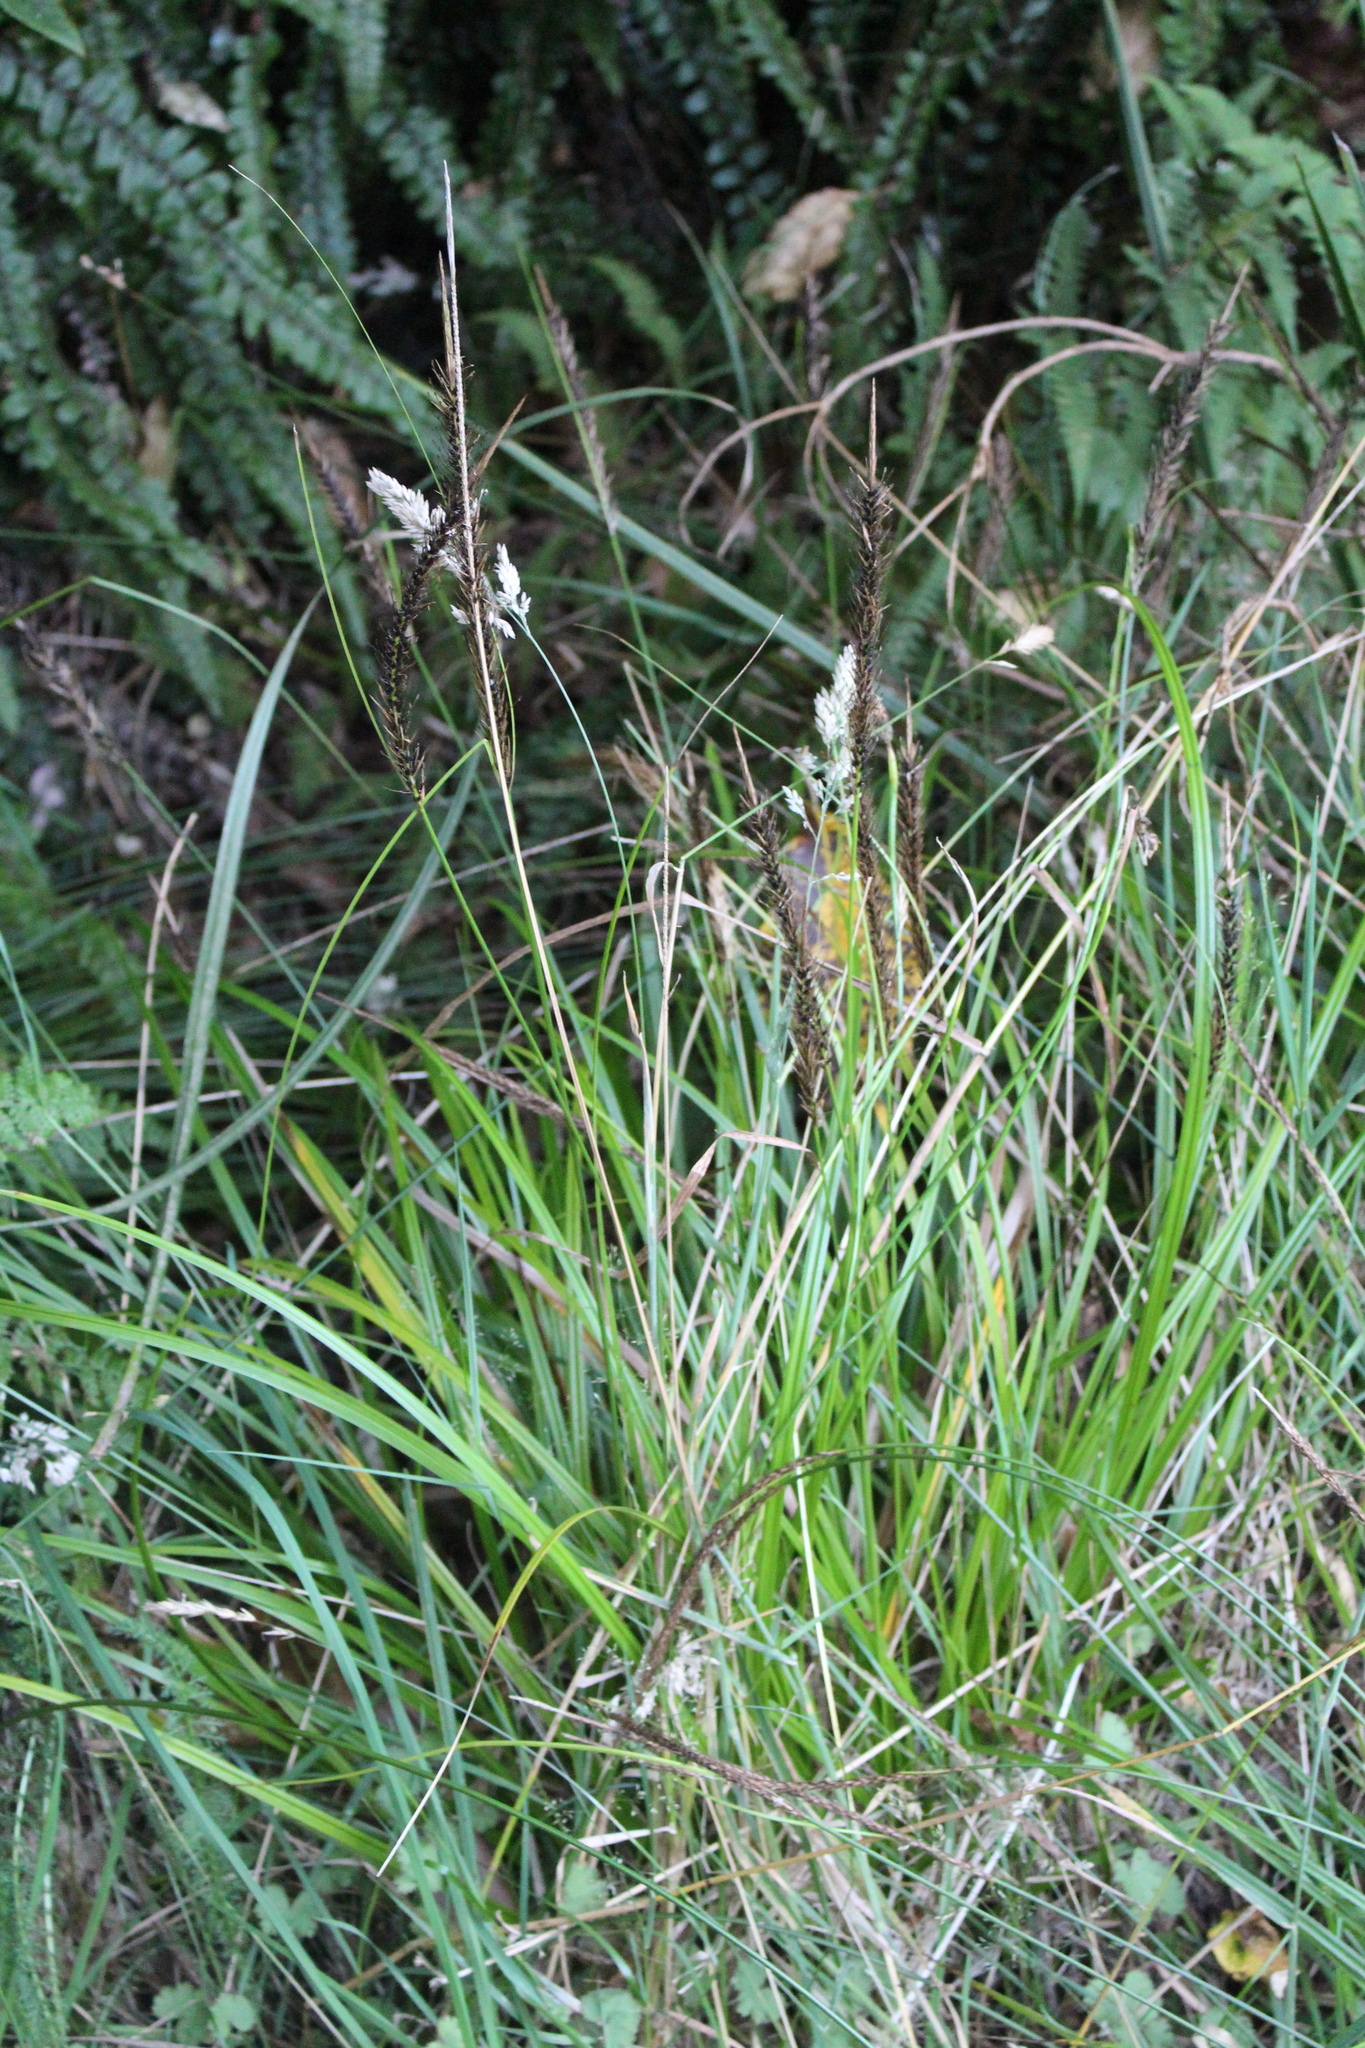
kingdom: Plantae
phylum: Tracheophyta
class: Liliopsida
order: Poales
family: Cyperaceae
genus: Carex
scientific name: Carex megalepis
